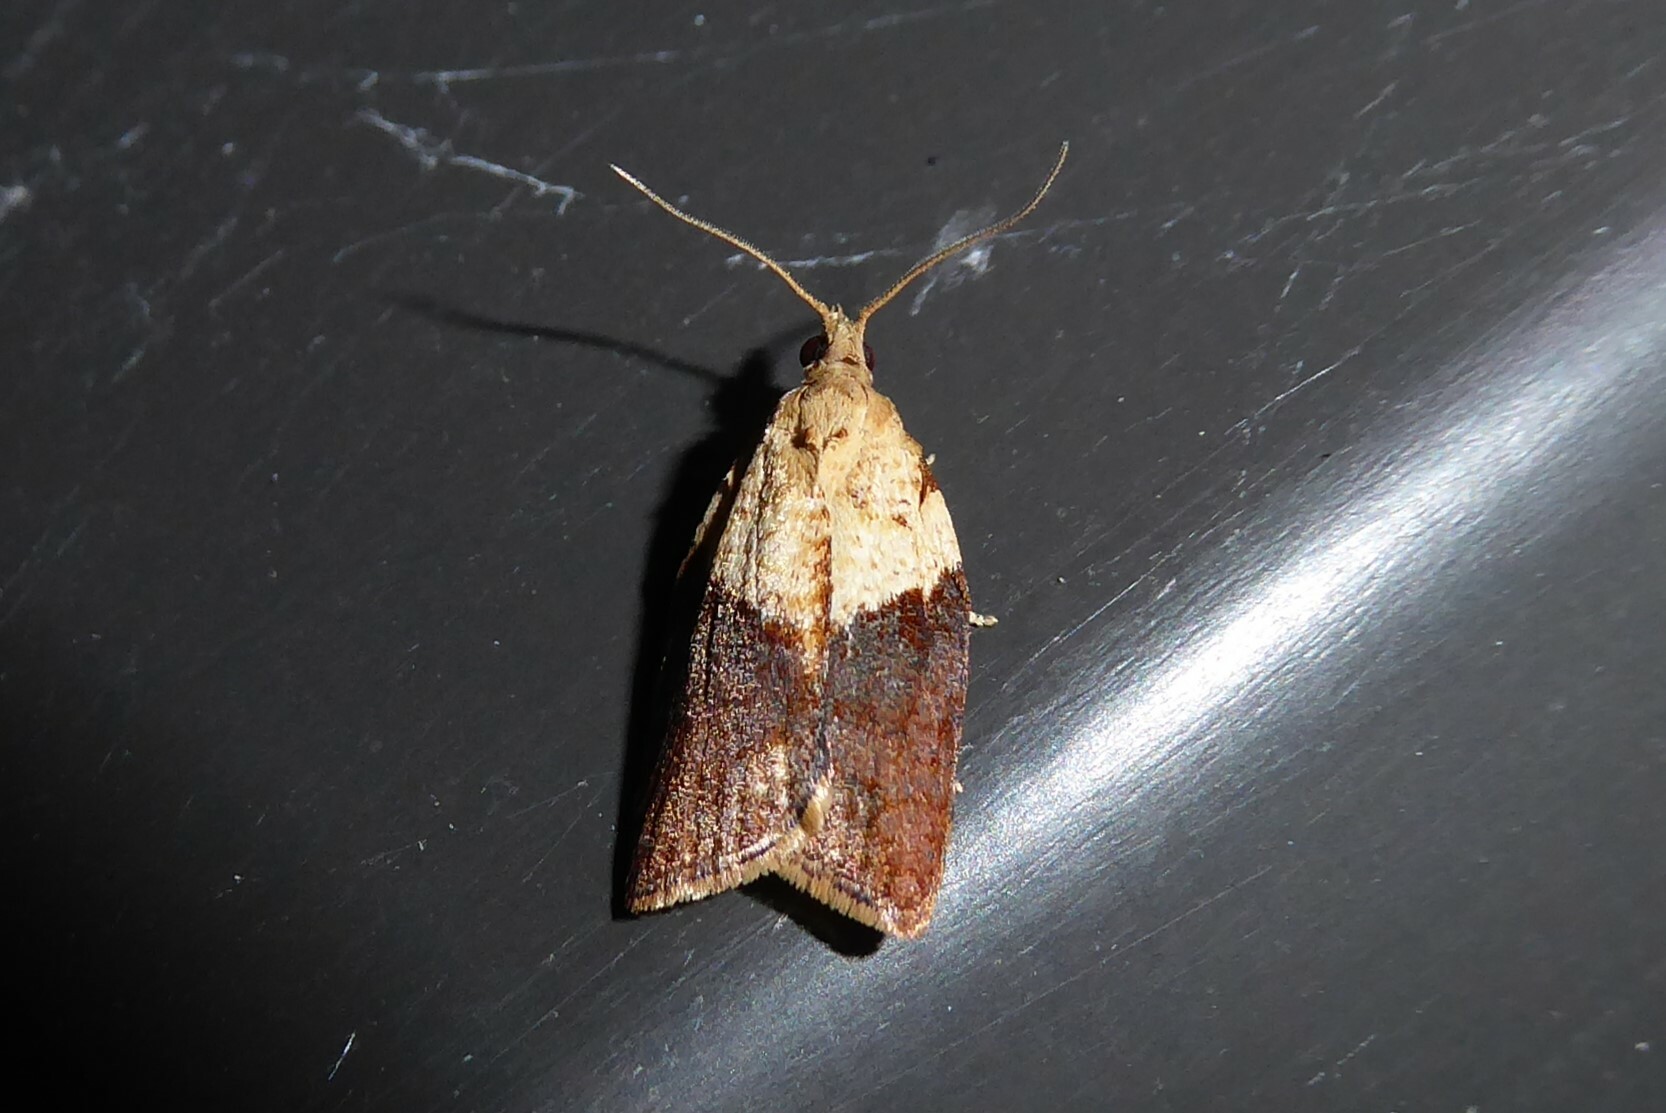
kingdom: Animalia
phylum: Arthropoda
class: Insecta
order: Lepidoptera
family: Tortricidae
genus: Epiphyas
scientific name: Epiphyas postvittana
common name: Light brown apple moth
